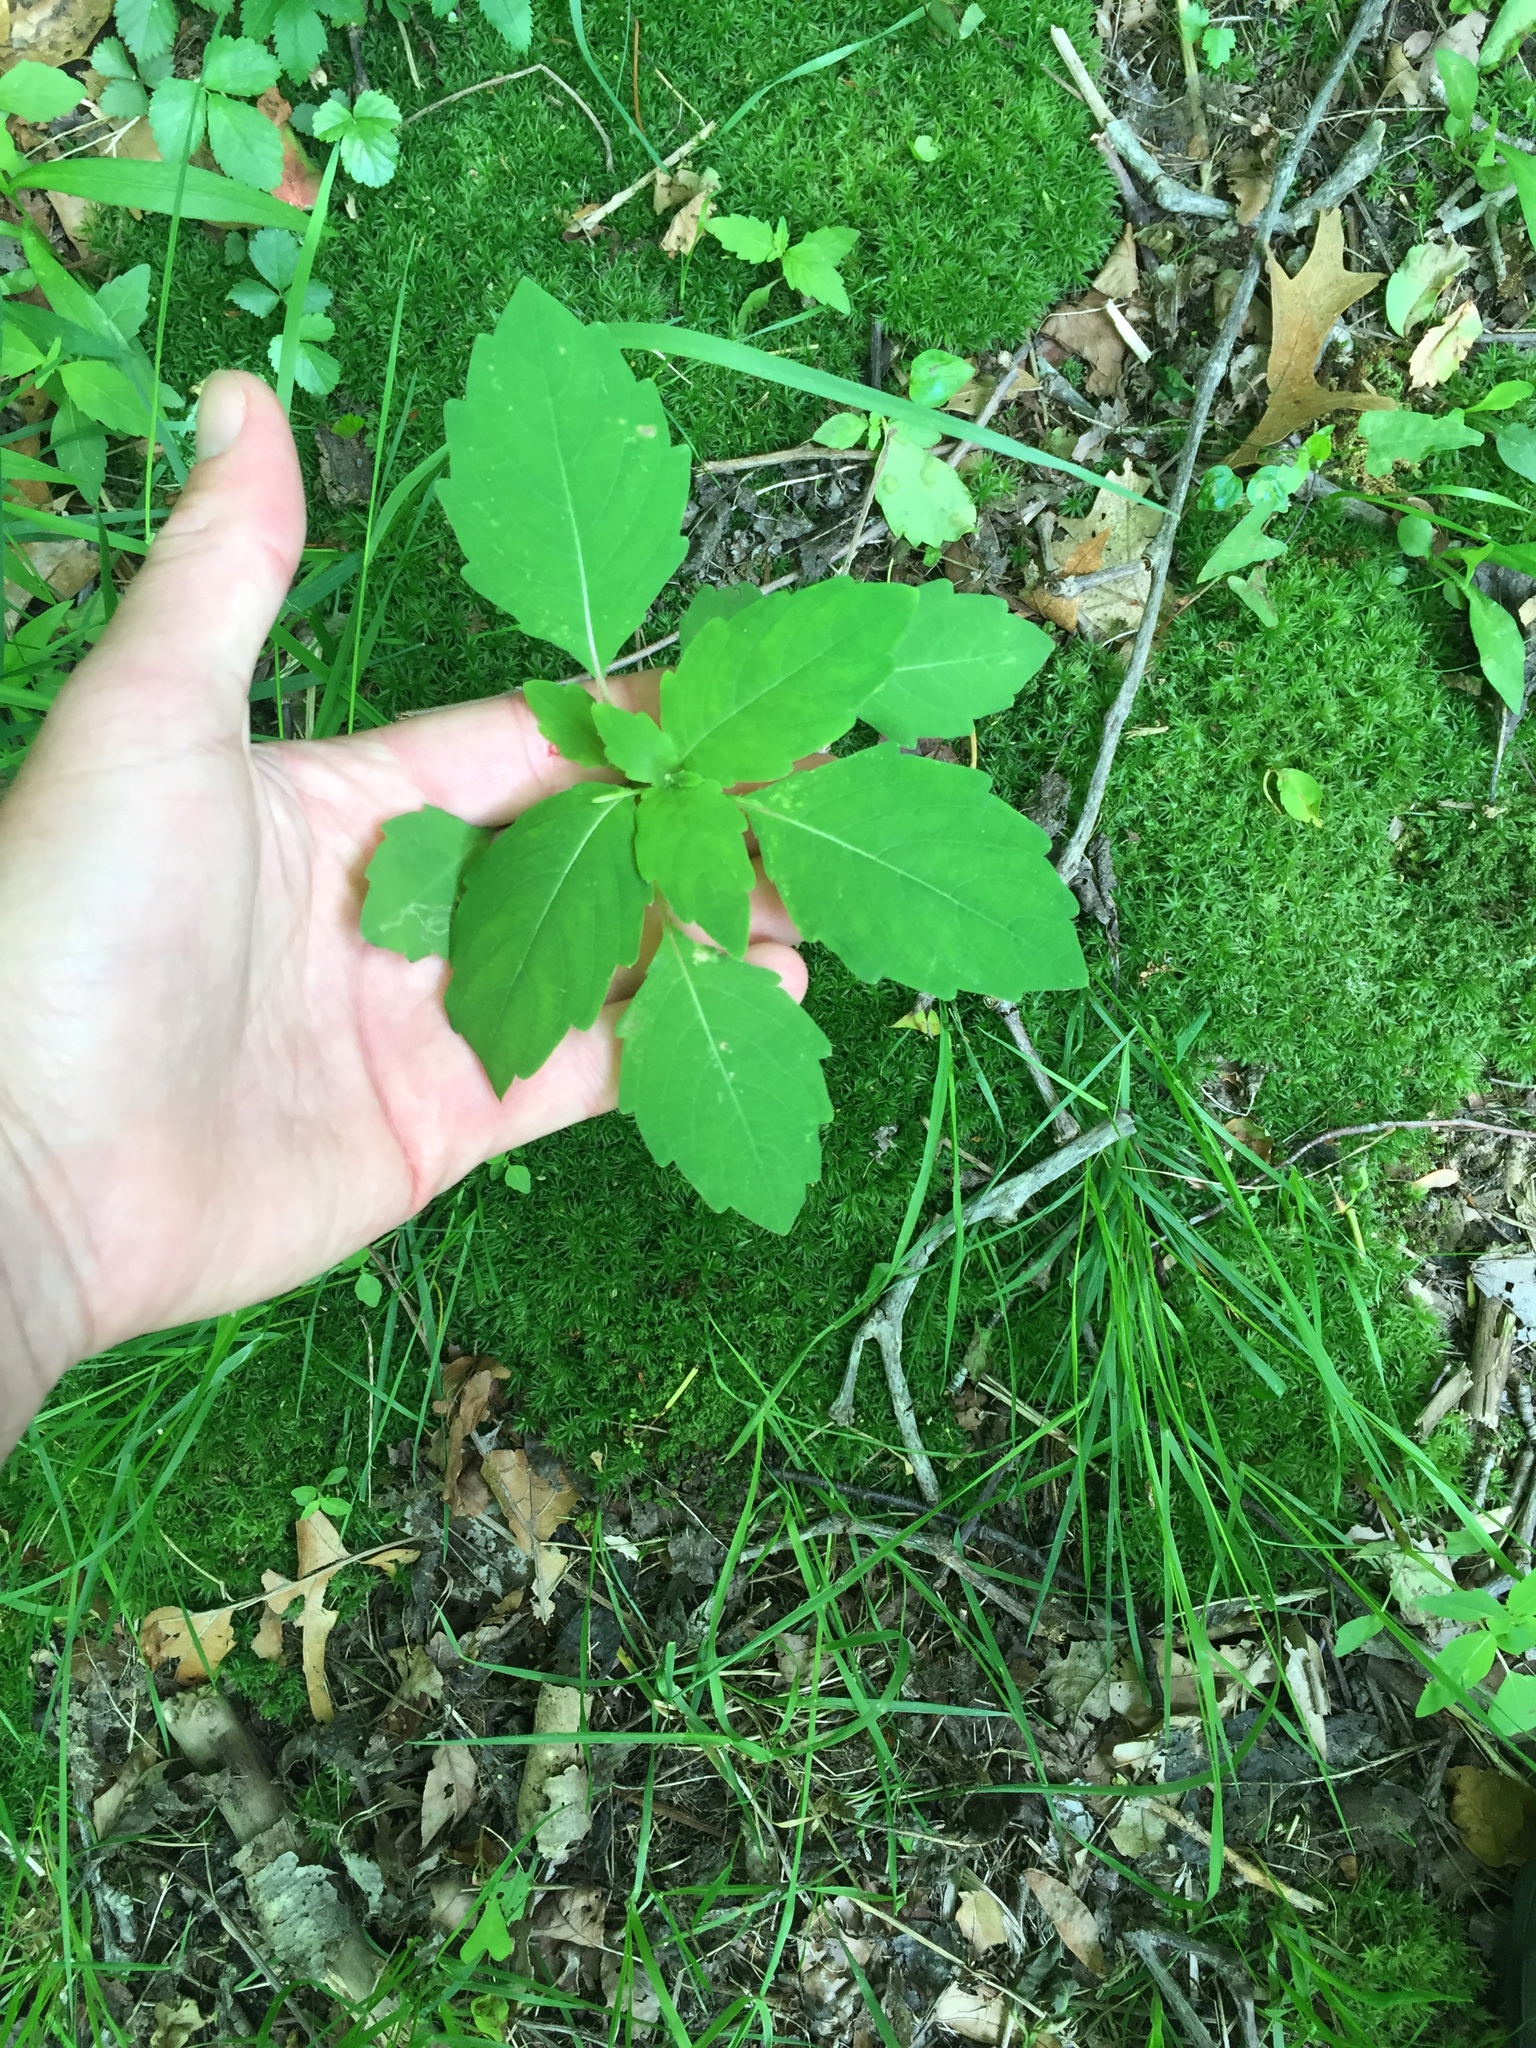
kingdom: Plantae
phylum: Tracheophyta
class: Magnoliopsida
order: Ericales
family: Balsaminaceae
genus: Impatiens
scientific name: Impatiens capensis
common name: Orange balsam
